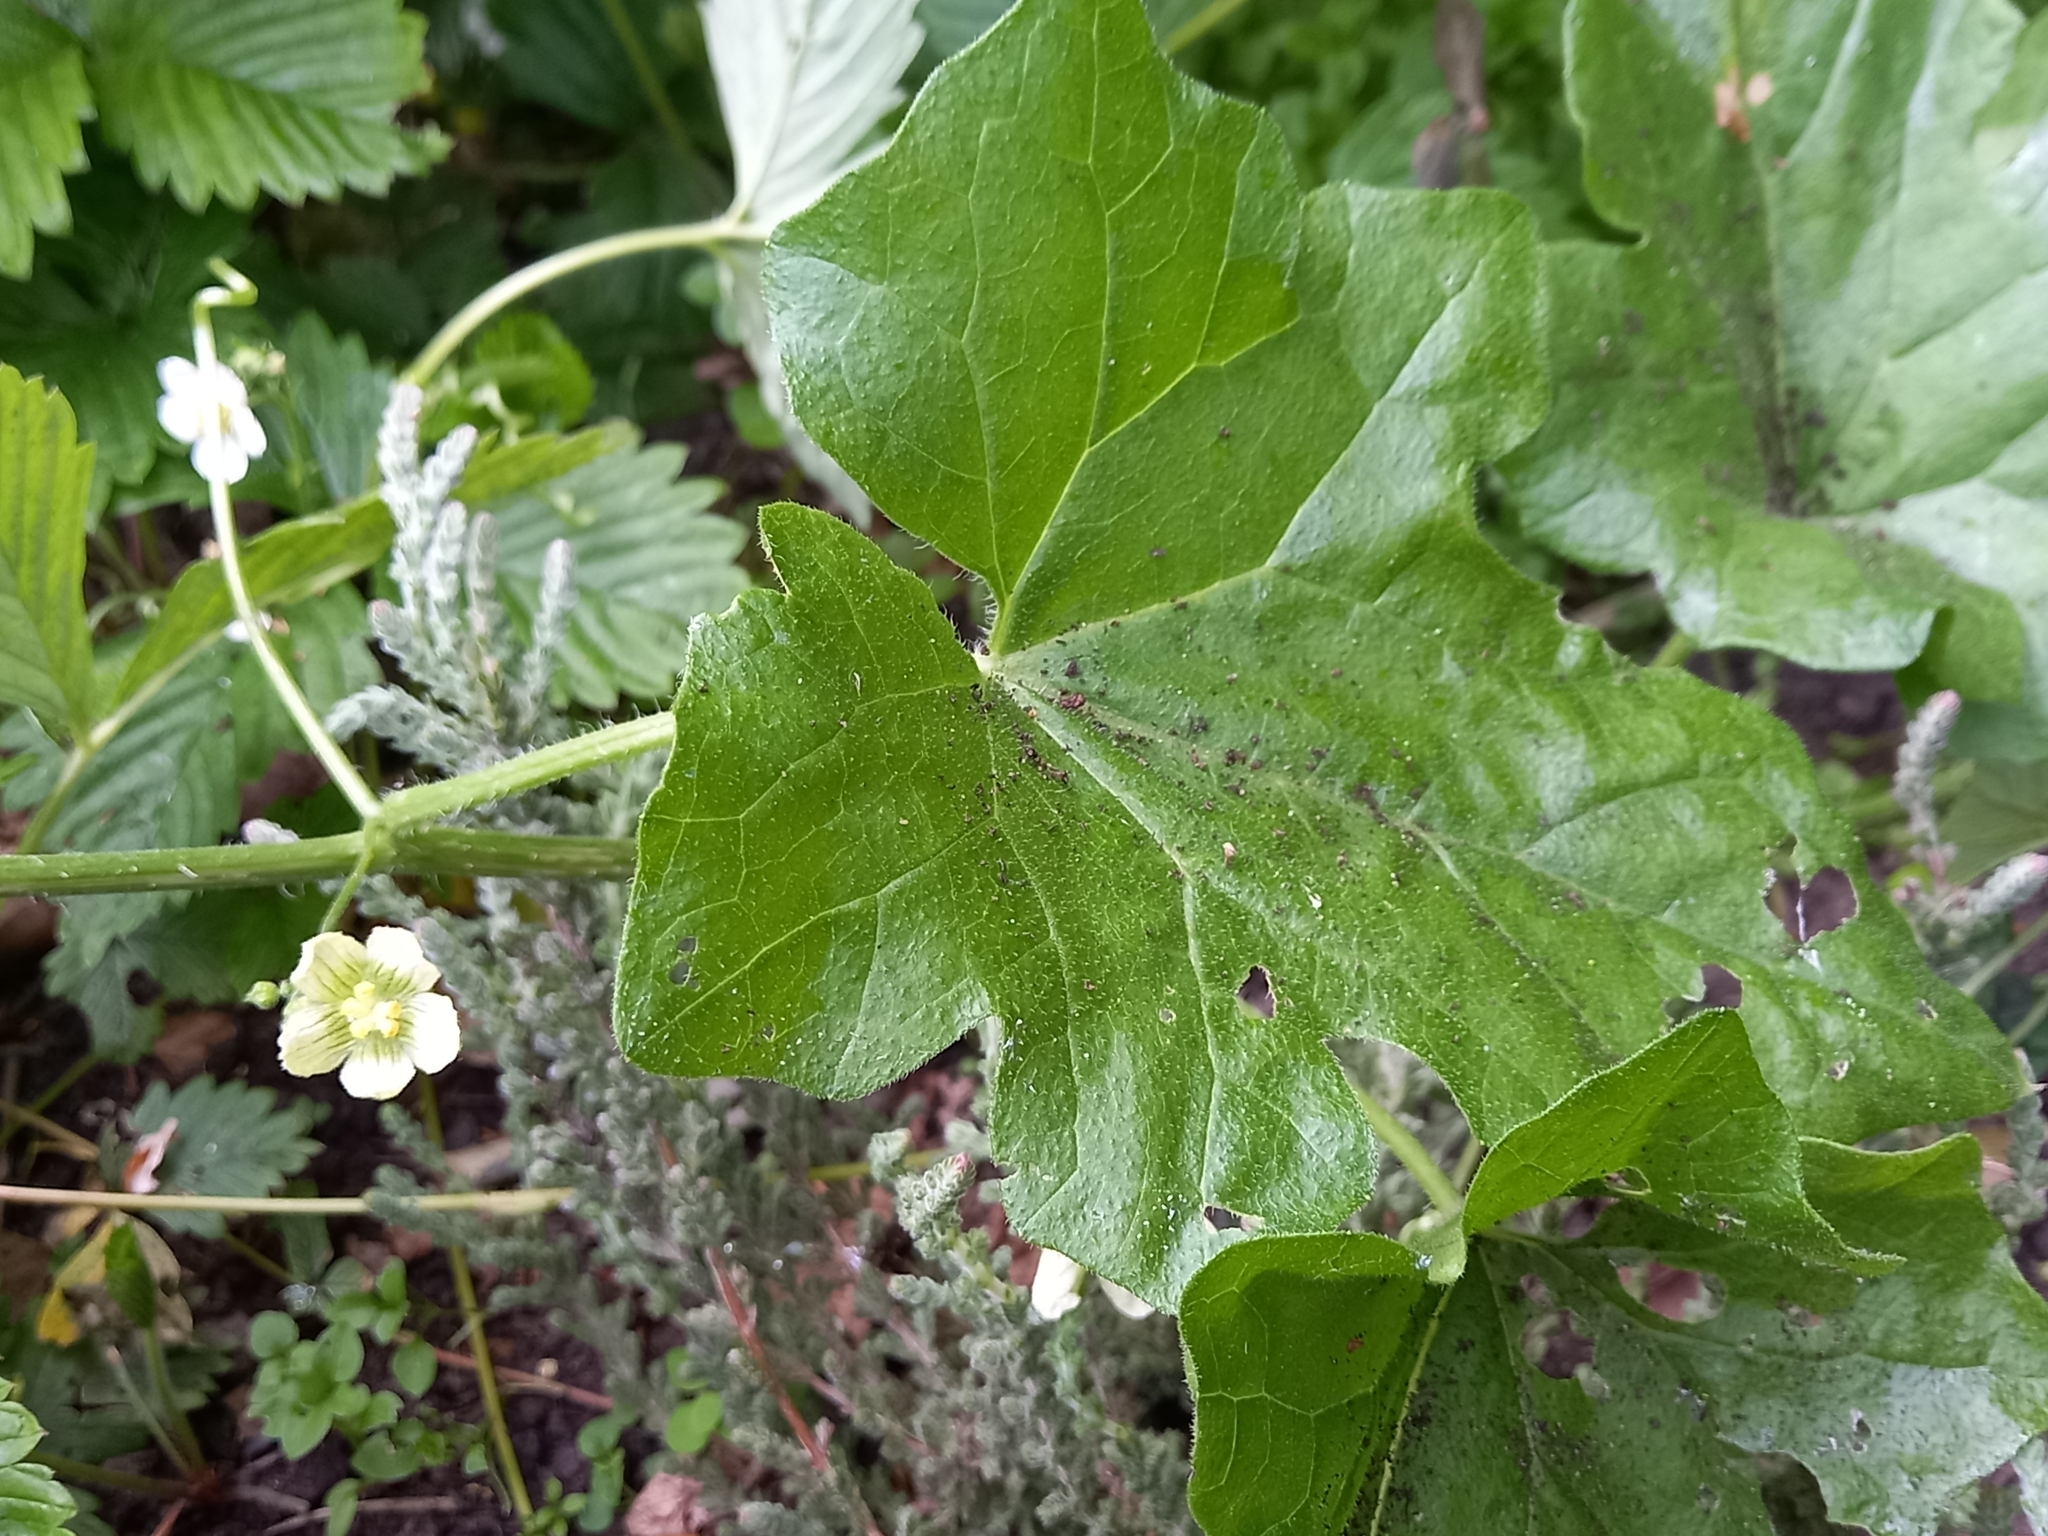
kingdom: Plantae
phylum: Tracheophyta
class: Magnoliopsida
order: Cucurbitales
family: Cucurbitaceae
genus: Bryonia
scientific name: Bryonia cretica
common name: Cretan bryony
